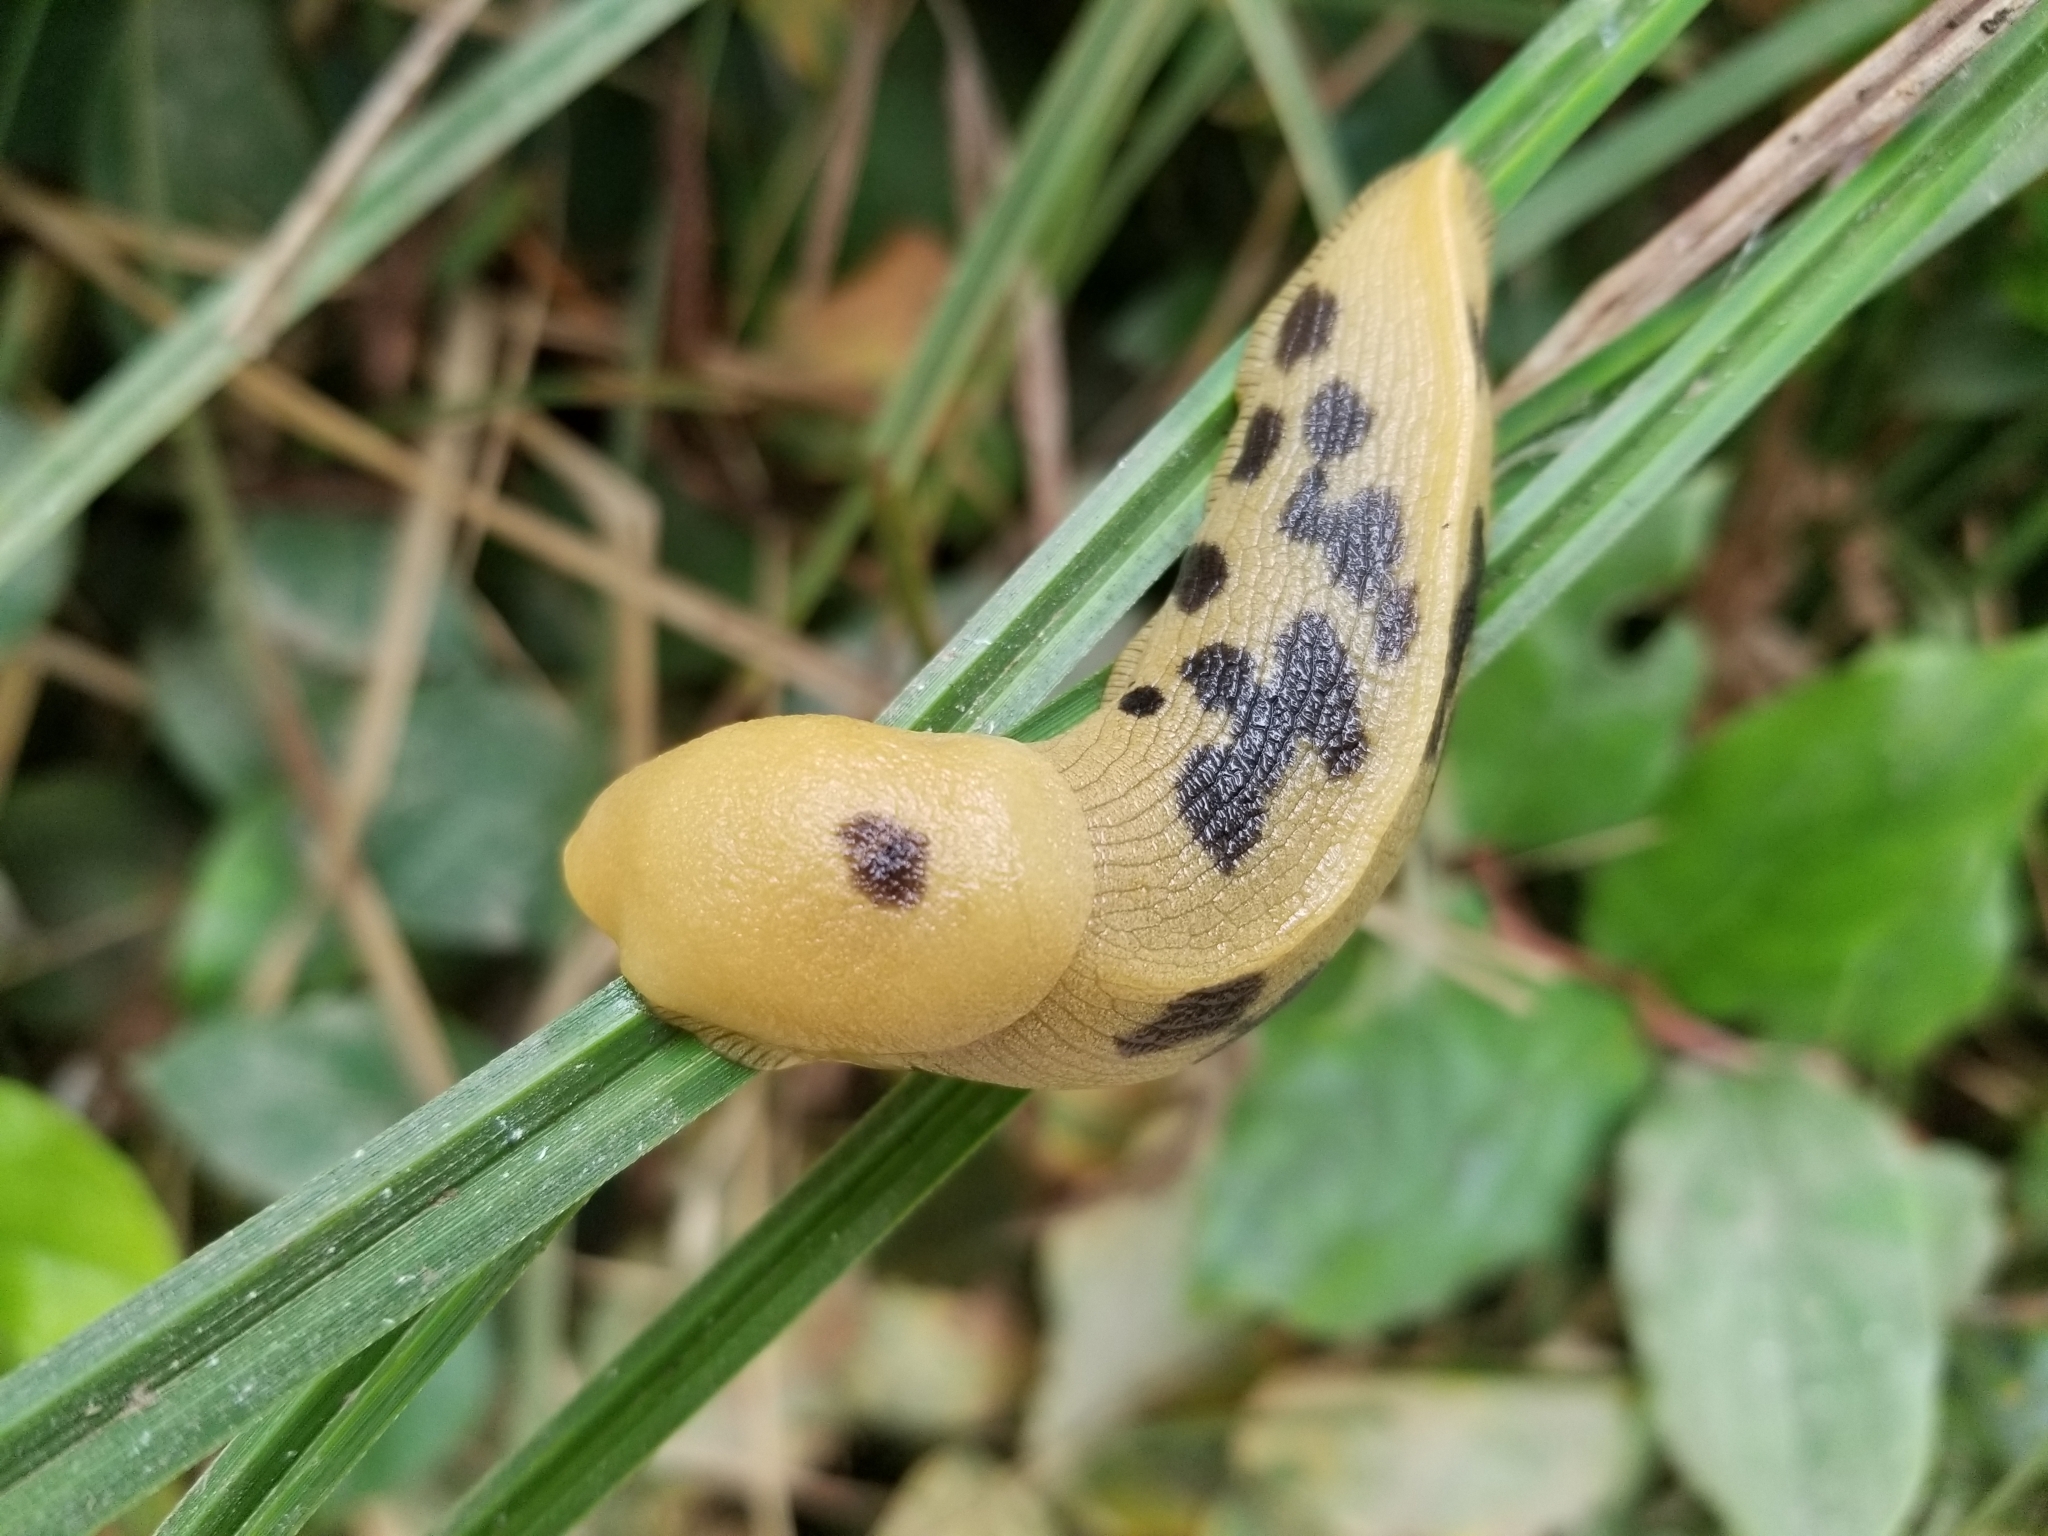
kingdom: Animalia
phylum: Mollusca
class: Gastropoda
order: Stylommatophora
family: Ariolimacidae
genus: Ariolimax
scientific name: Ariolimax columbianus
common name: Pacific banana slug
